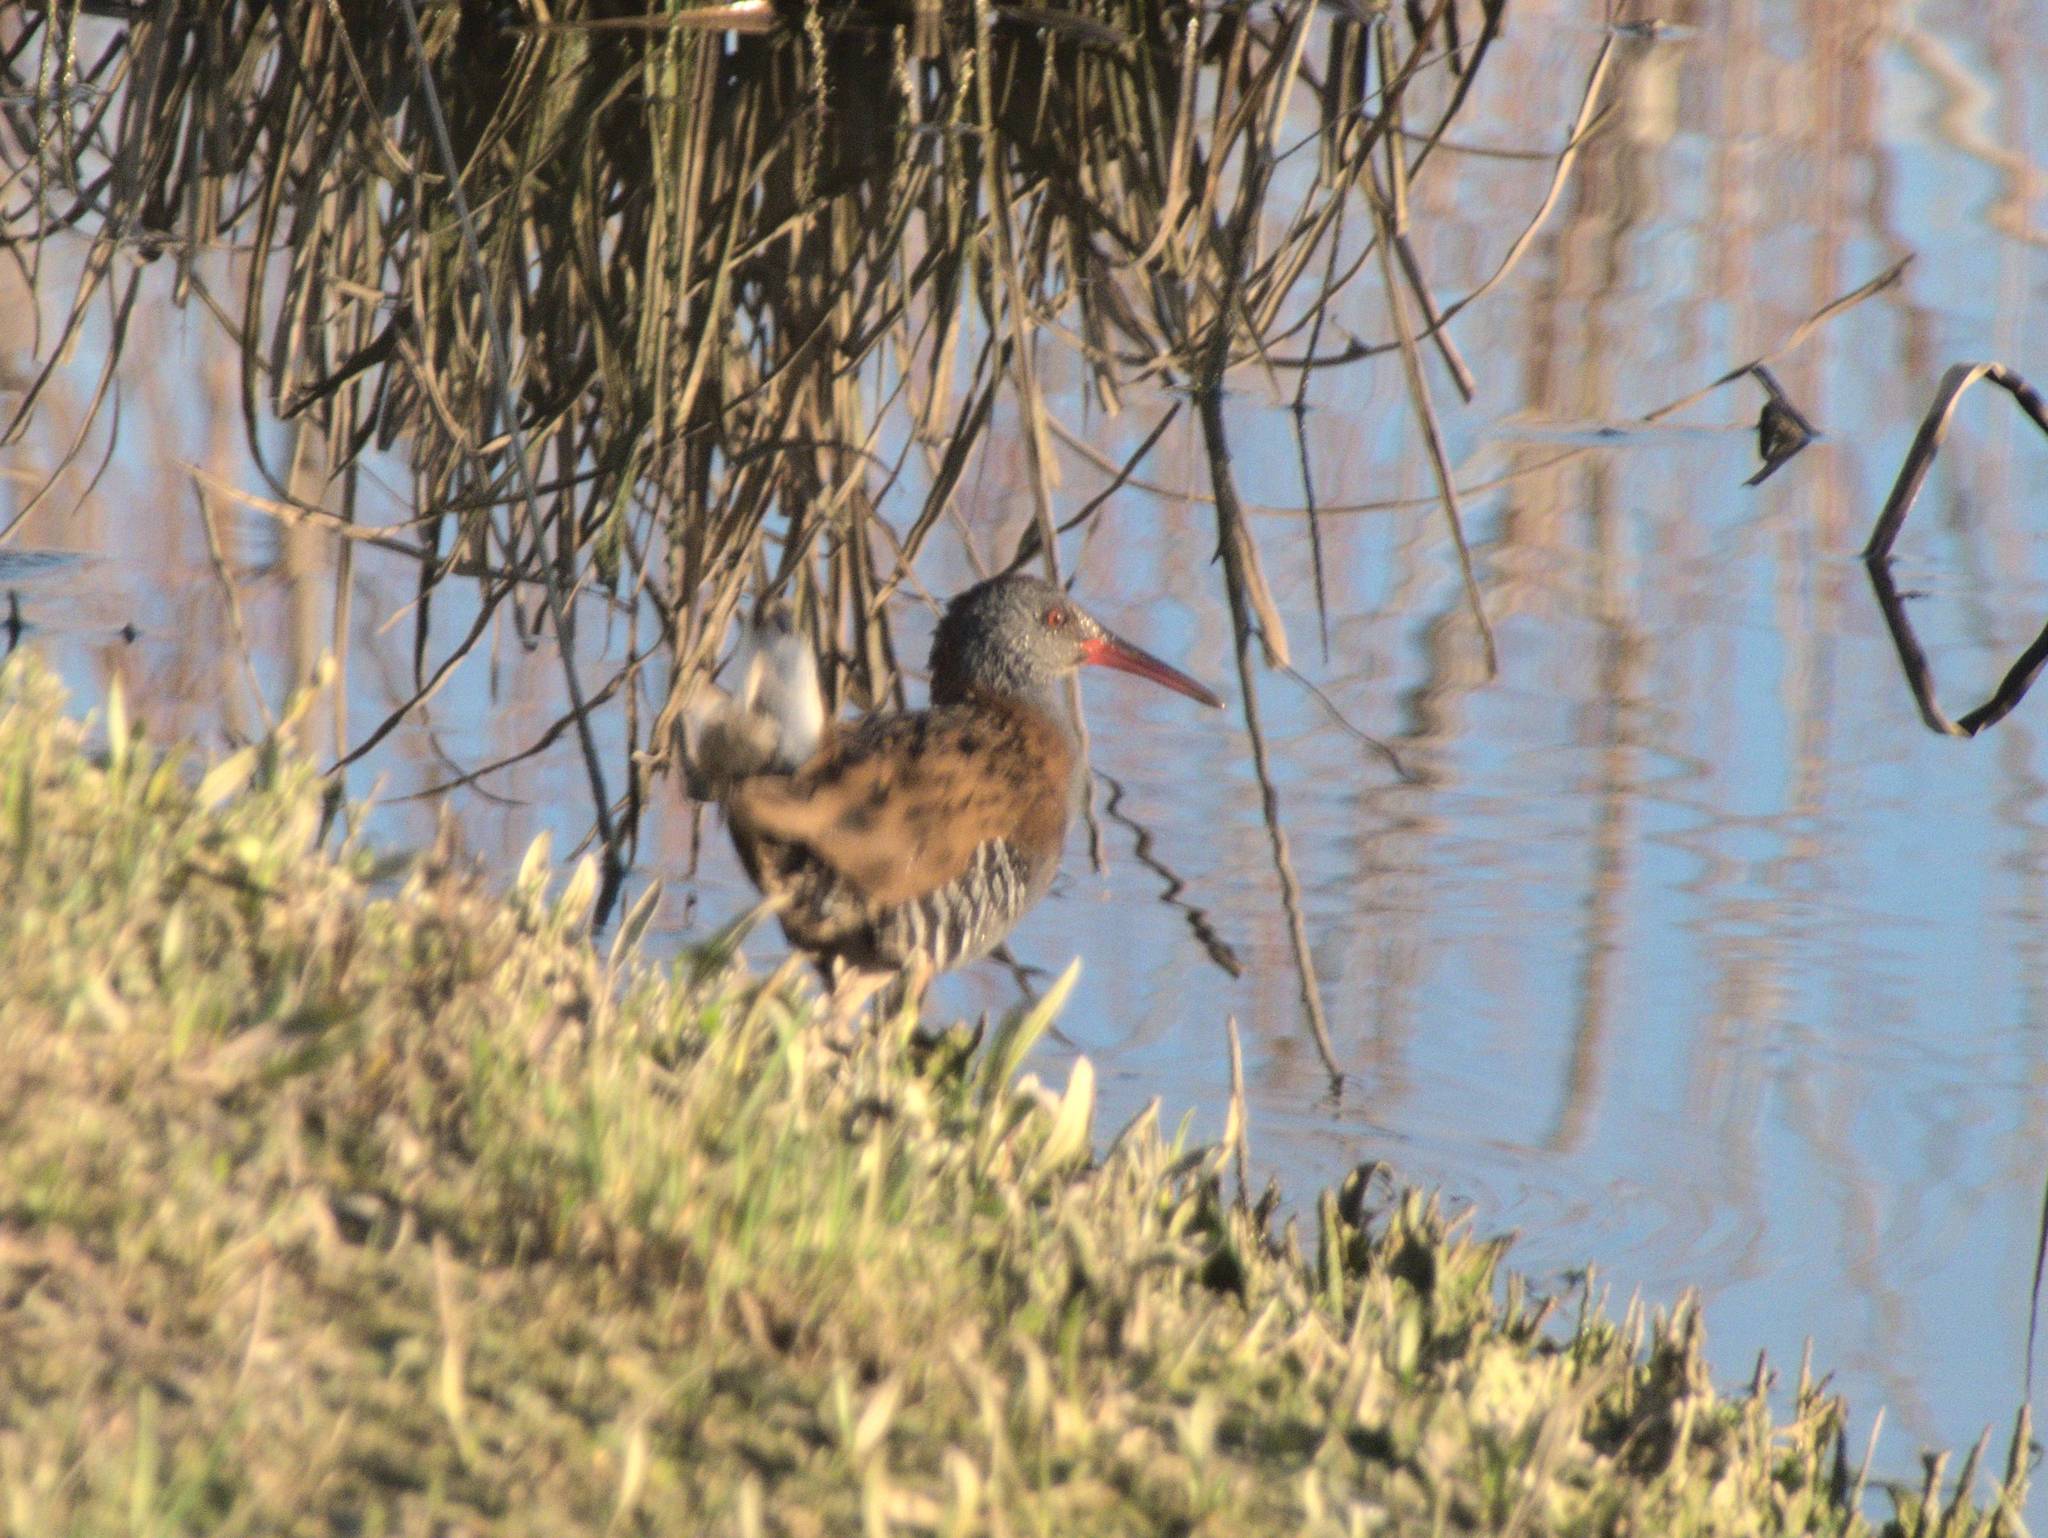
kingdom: Animalia
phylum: Chordata
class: Aves
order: Gruiformes
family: Rallidae
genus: Rallus
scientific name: Rallus aquaticus
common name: Water rail
